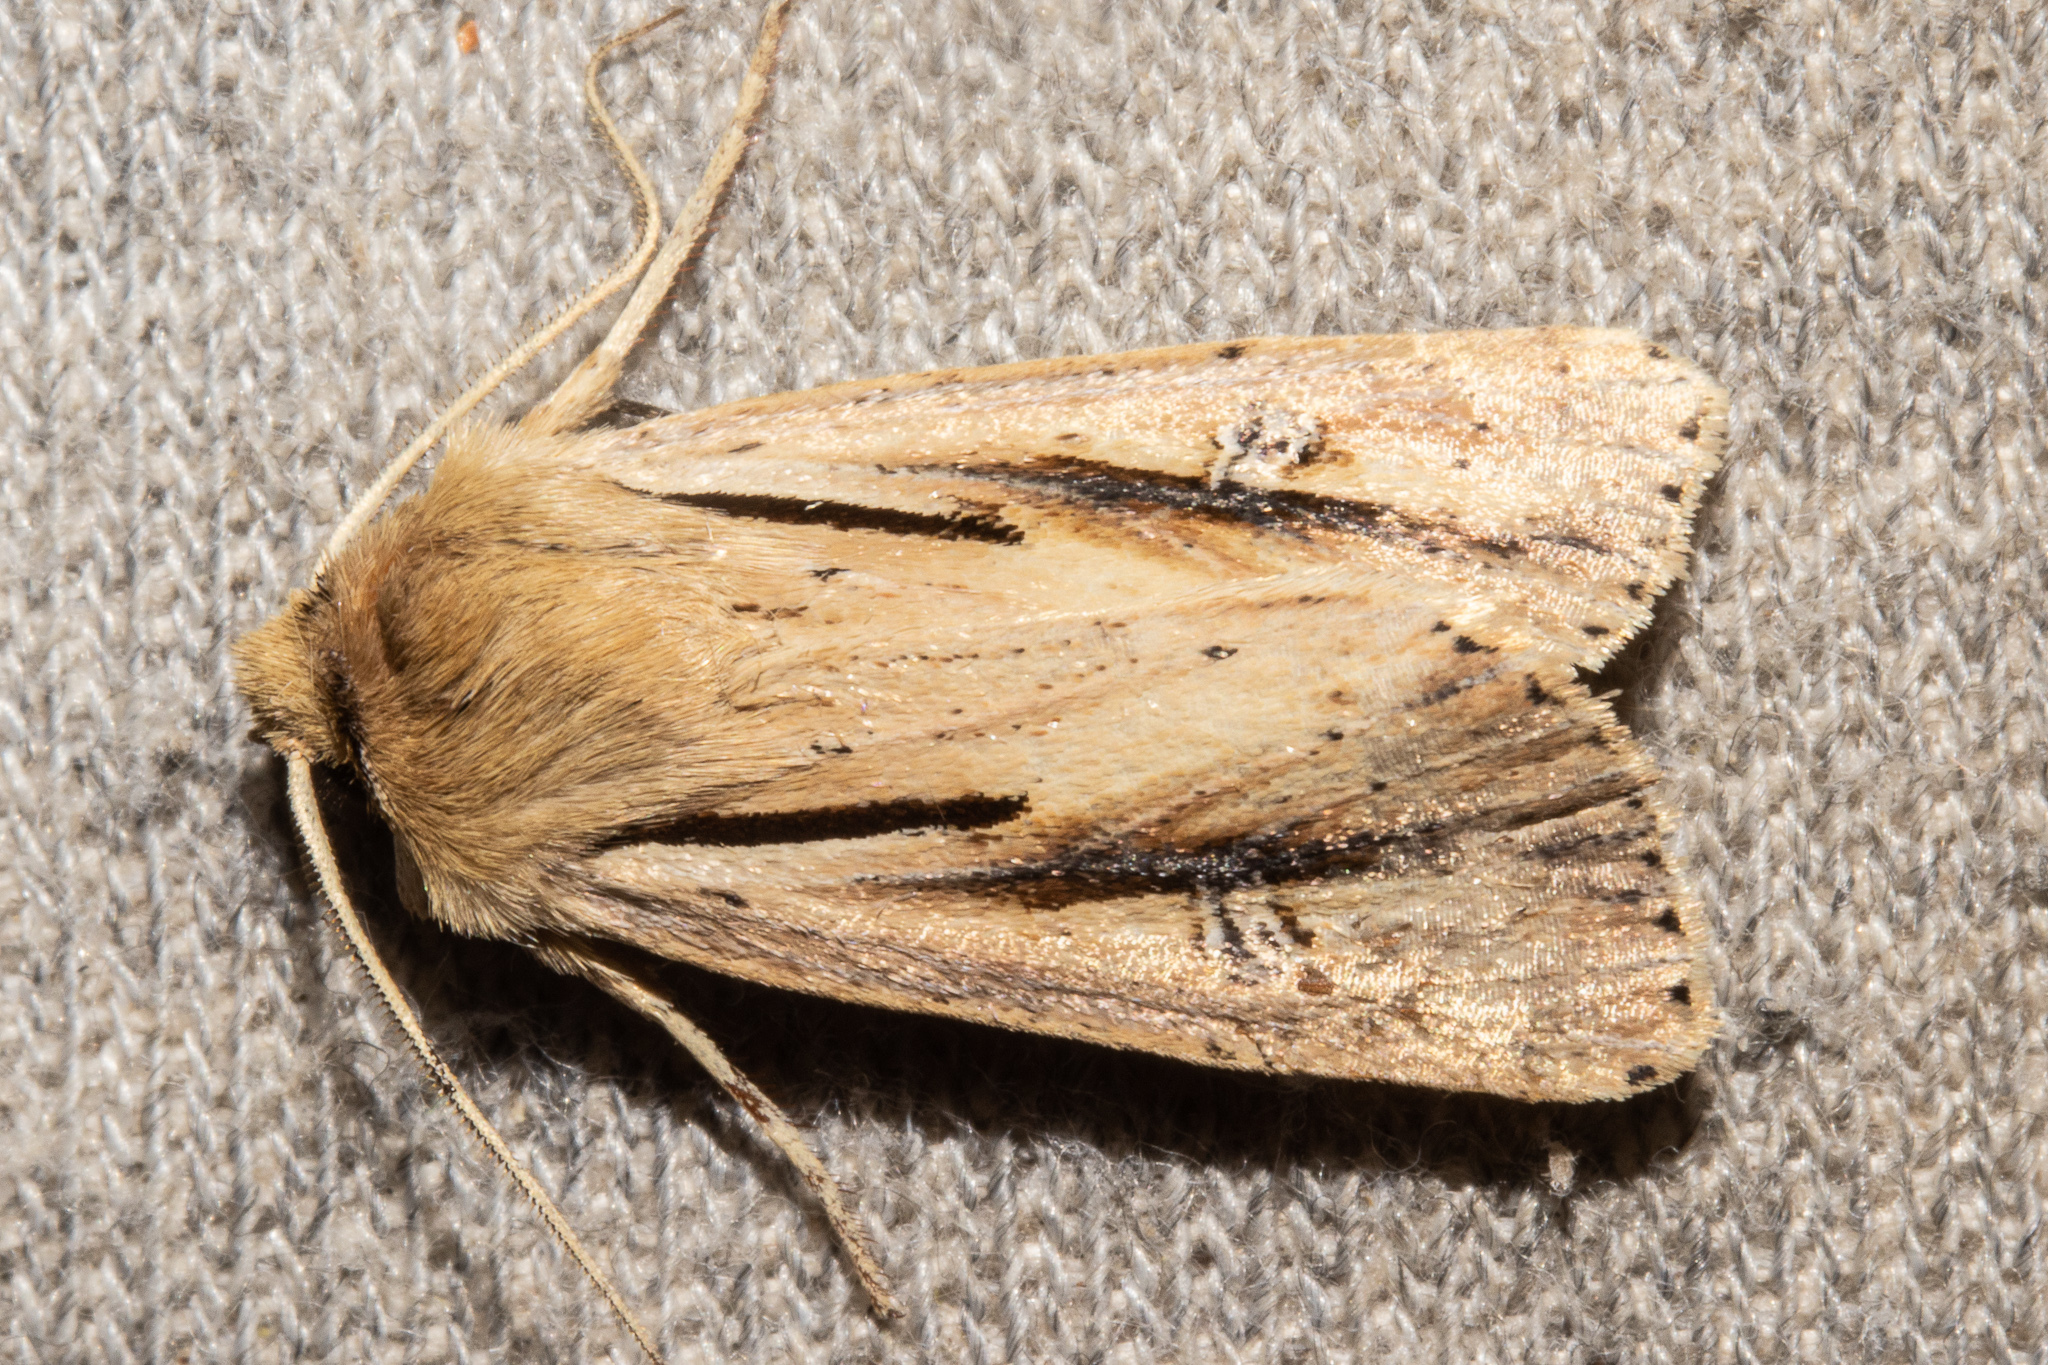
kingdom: Animalia
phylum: Arthropoda
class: Insecta
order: Lepidoptera
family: Noctuidae
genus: Ichneutica
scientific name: Ichneutica propria
